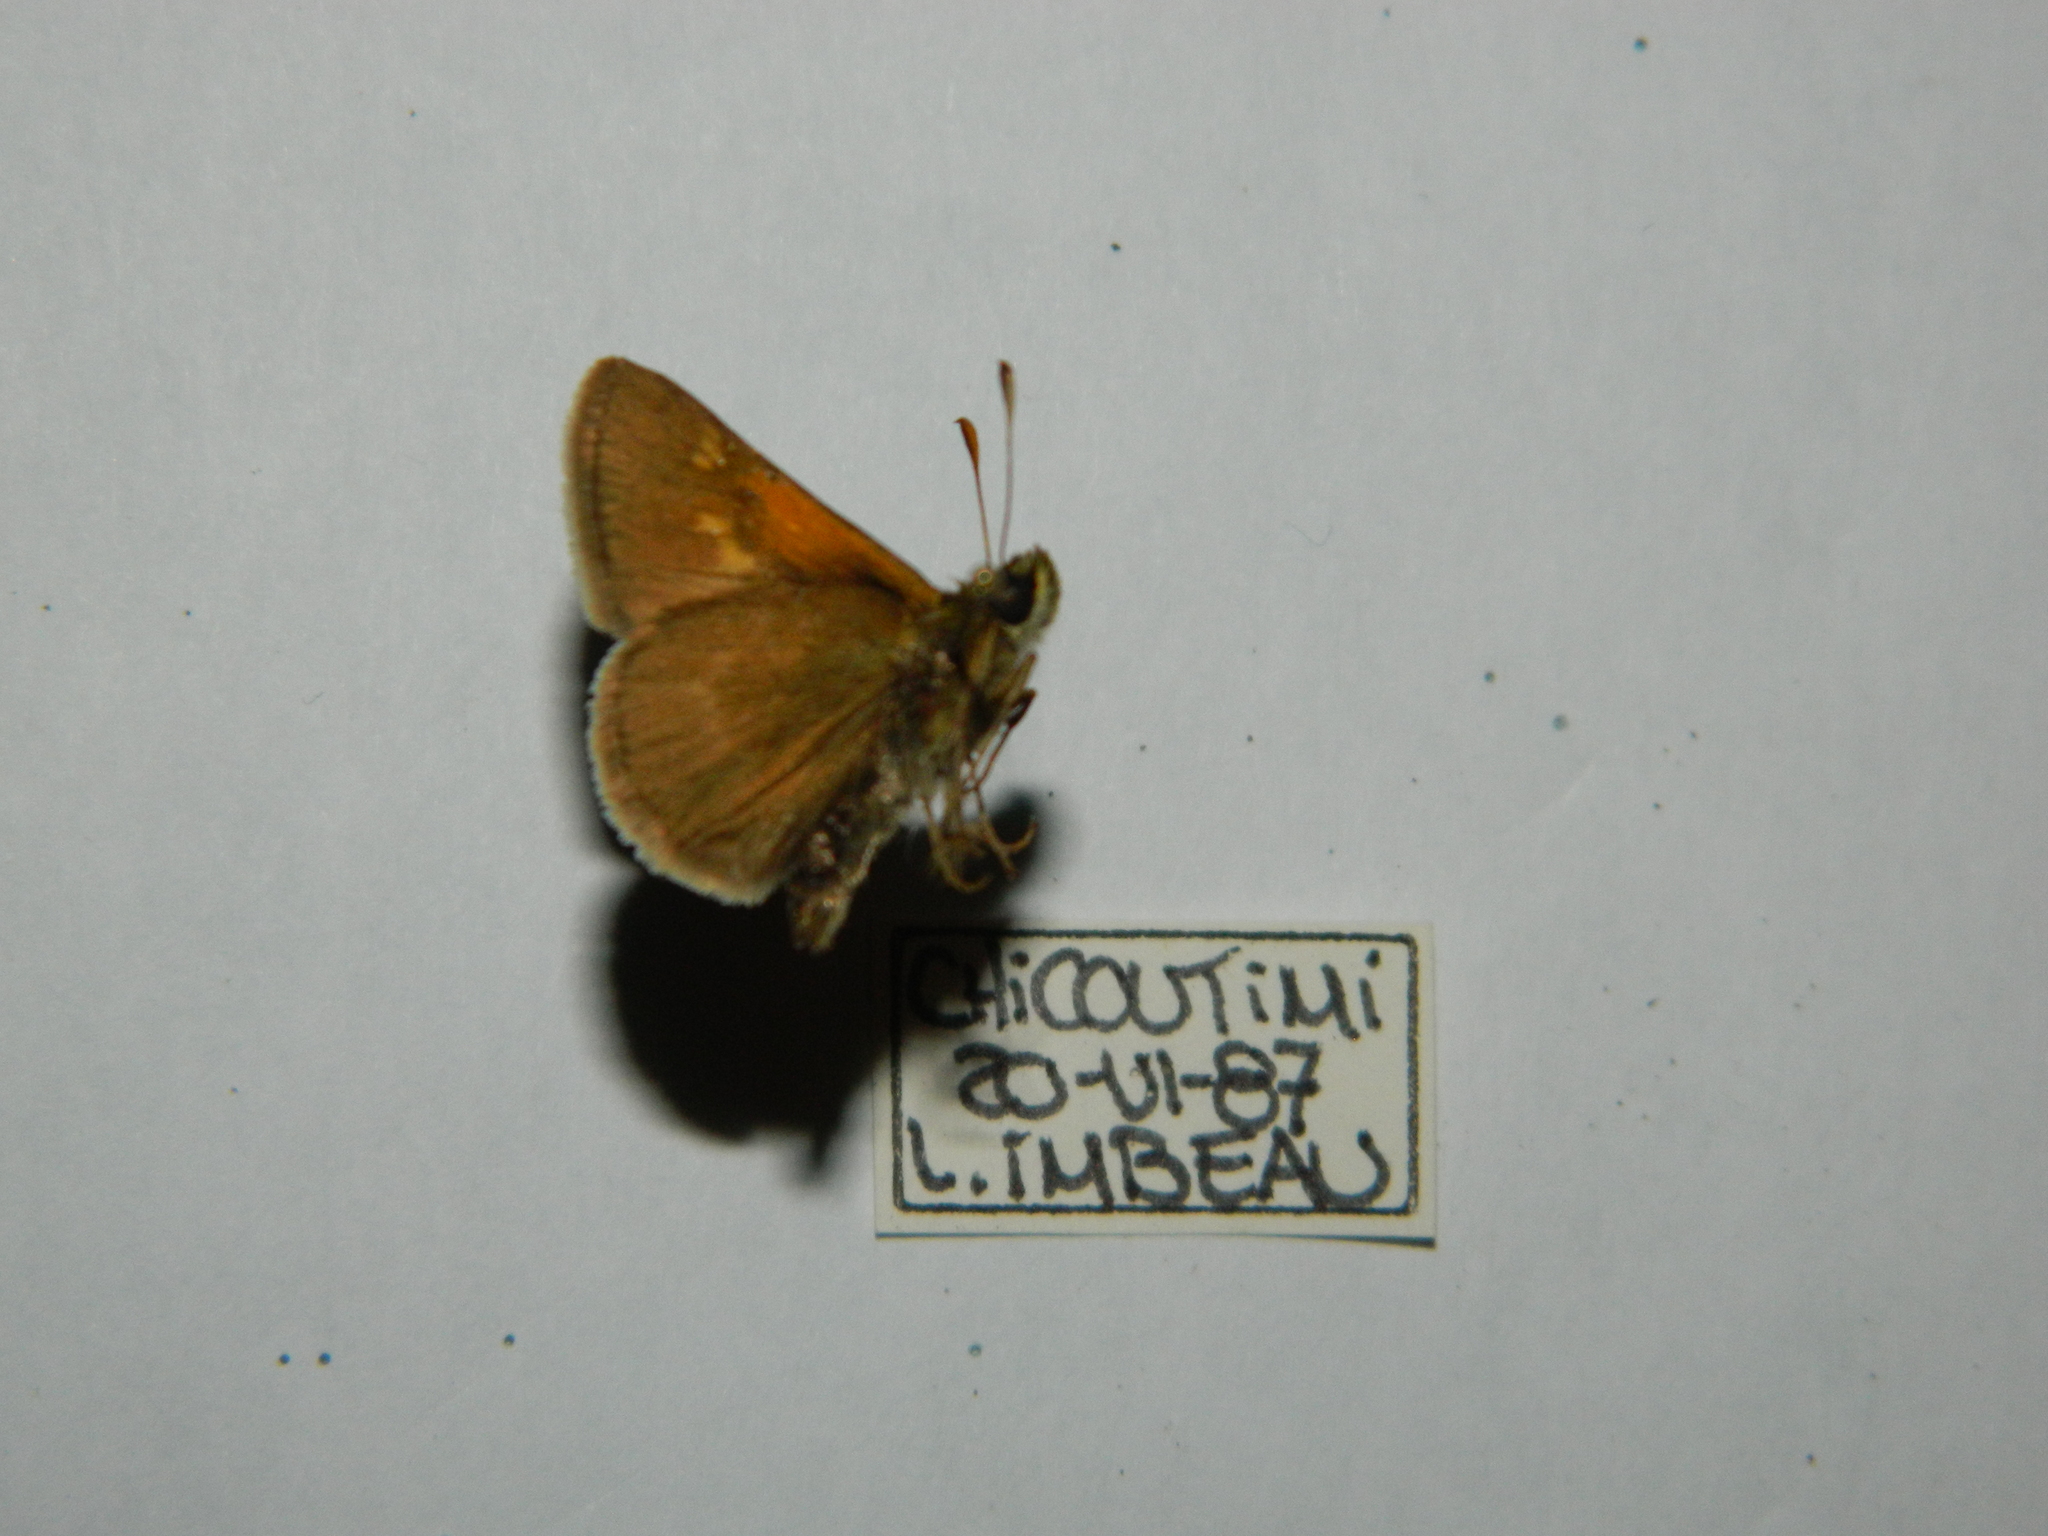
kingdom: Animalia
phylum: Arthropoda
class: Insecta
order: Lepidoptera
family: Hesperiidae
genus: Polites
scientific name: Polites themistocles
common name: Tawny-edged skipper
